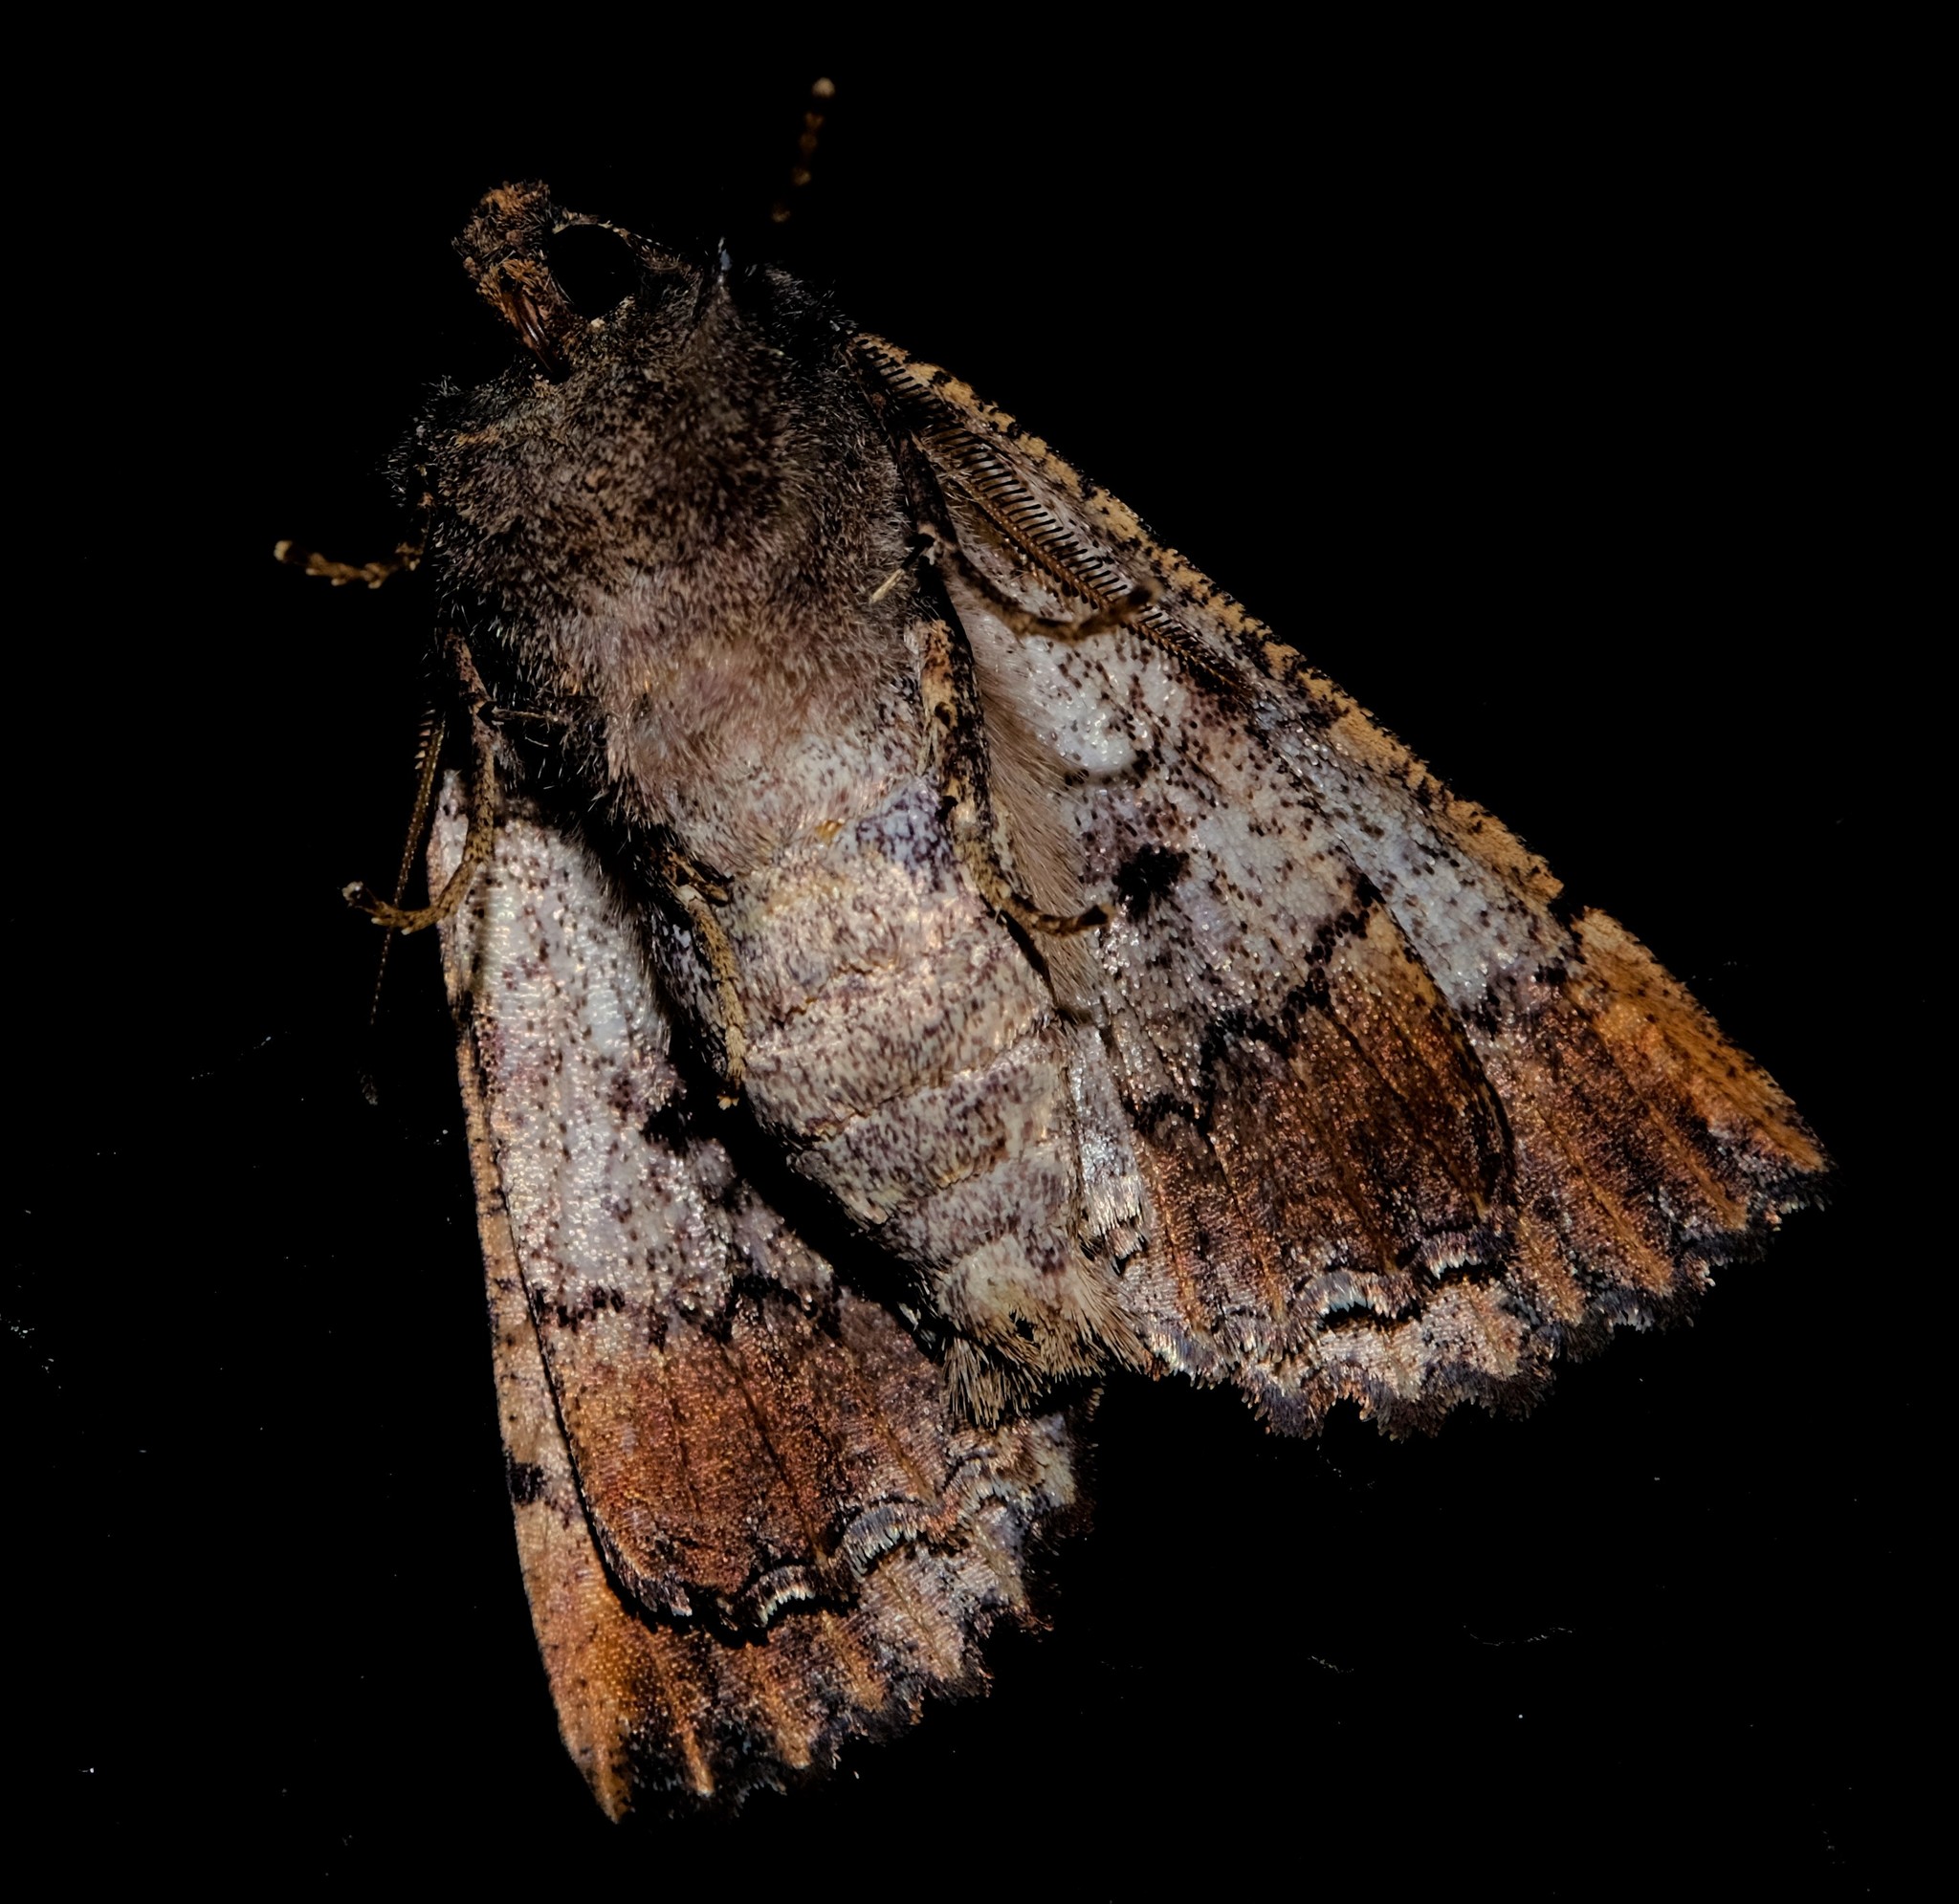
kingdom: Animalia
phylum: Arthropoda
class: Insecta
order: Lepidoptera
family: Geometridae
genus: Nisista
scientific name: Nisista serrata
